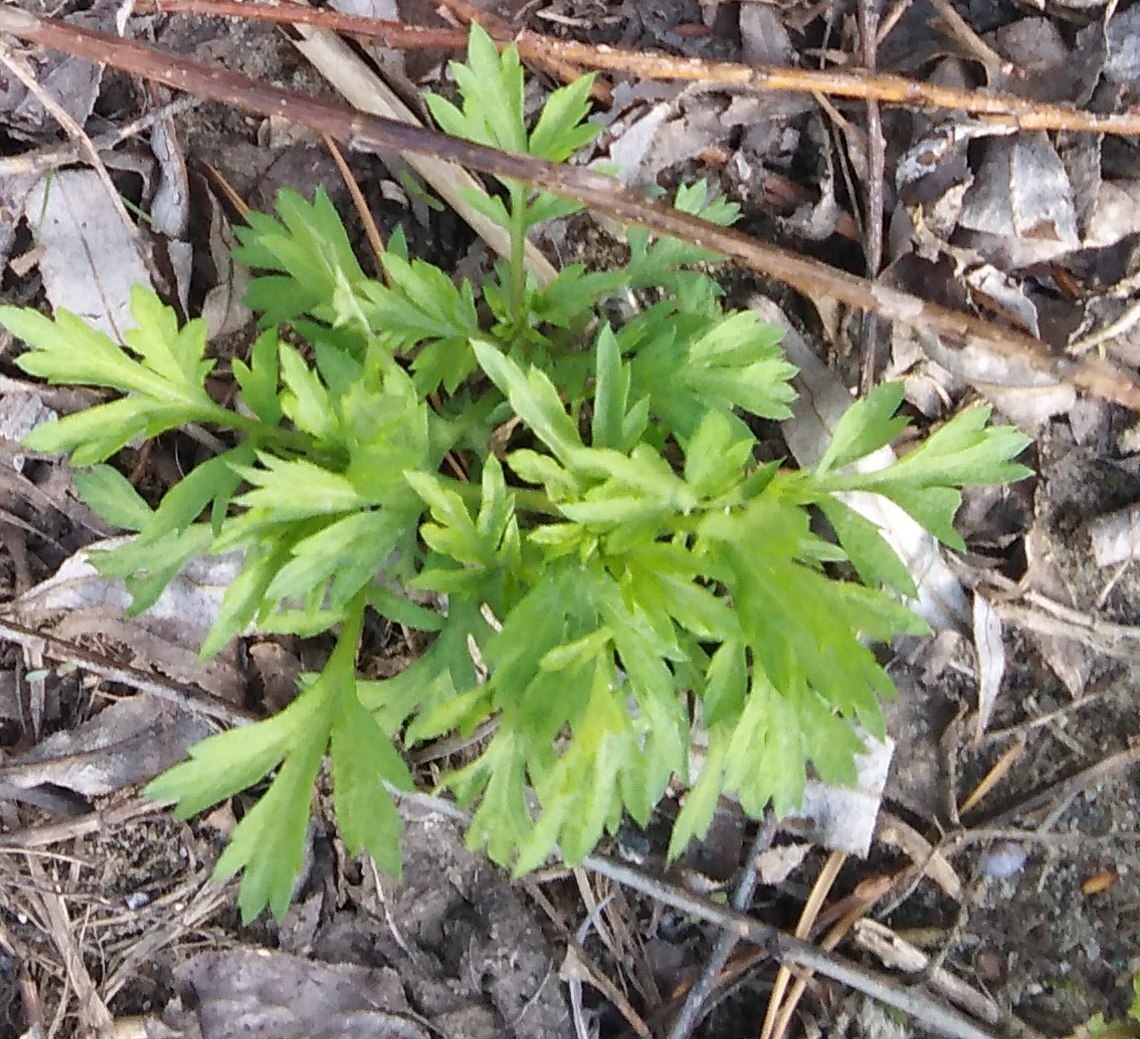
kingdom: Plantae
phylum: Tracheophyta
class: Magnoliopsida
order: Asterales
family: Asteraceae
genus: Artemisia
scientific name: Artemisia vulgaris
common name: Mugwort
